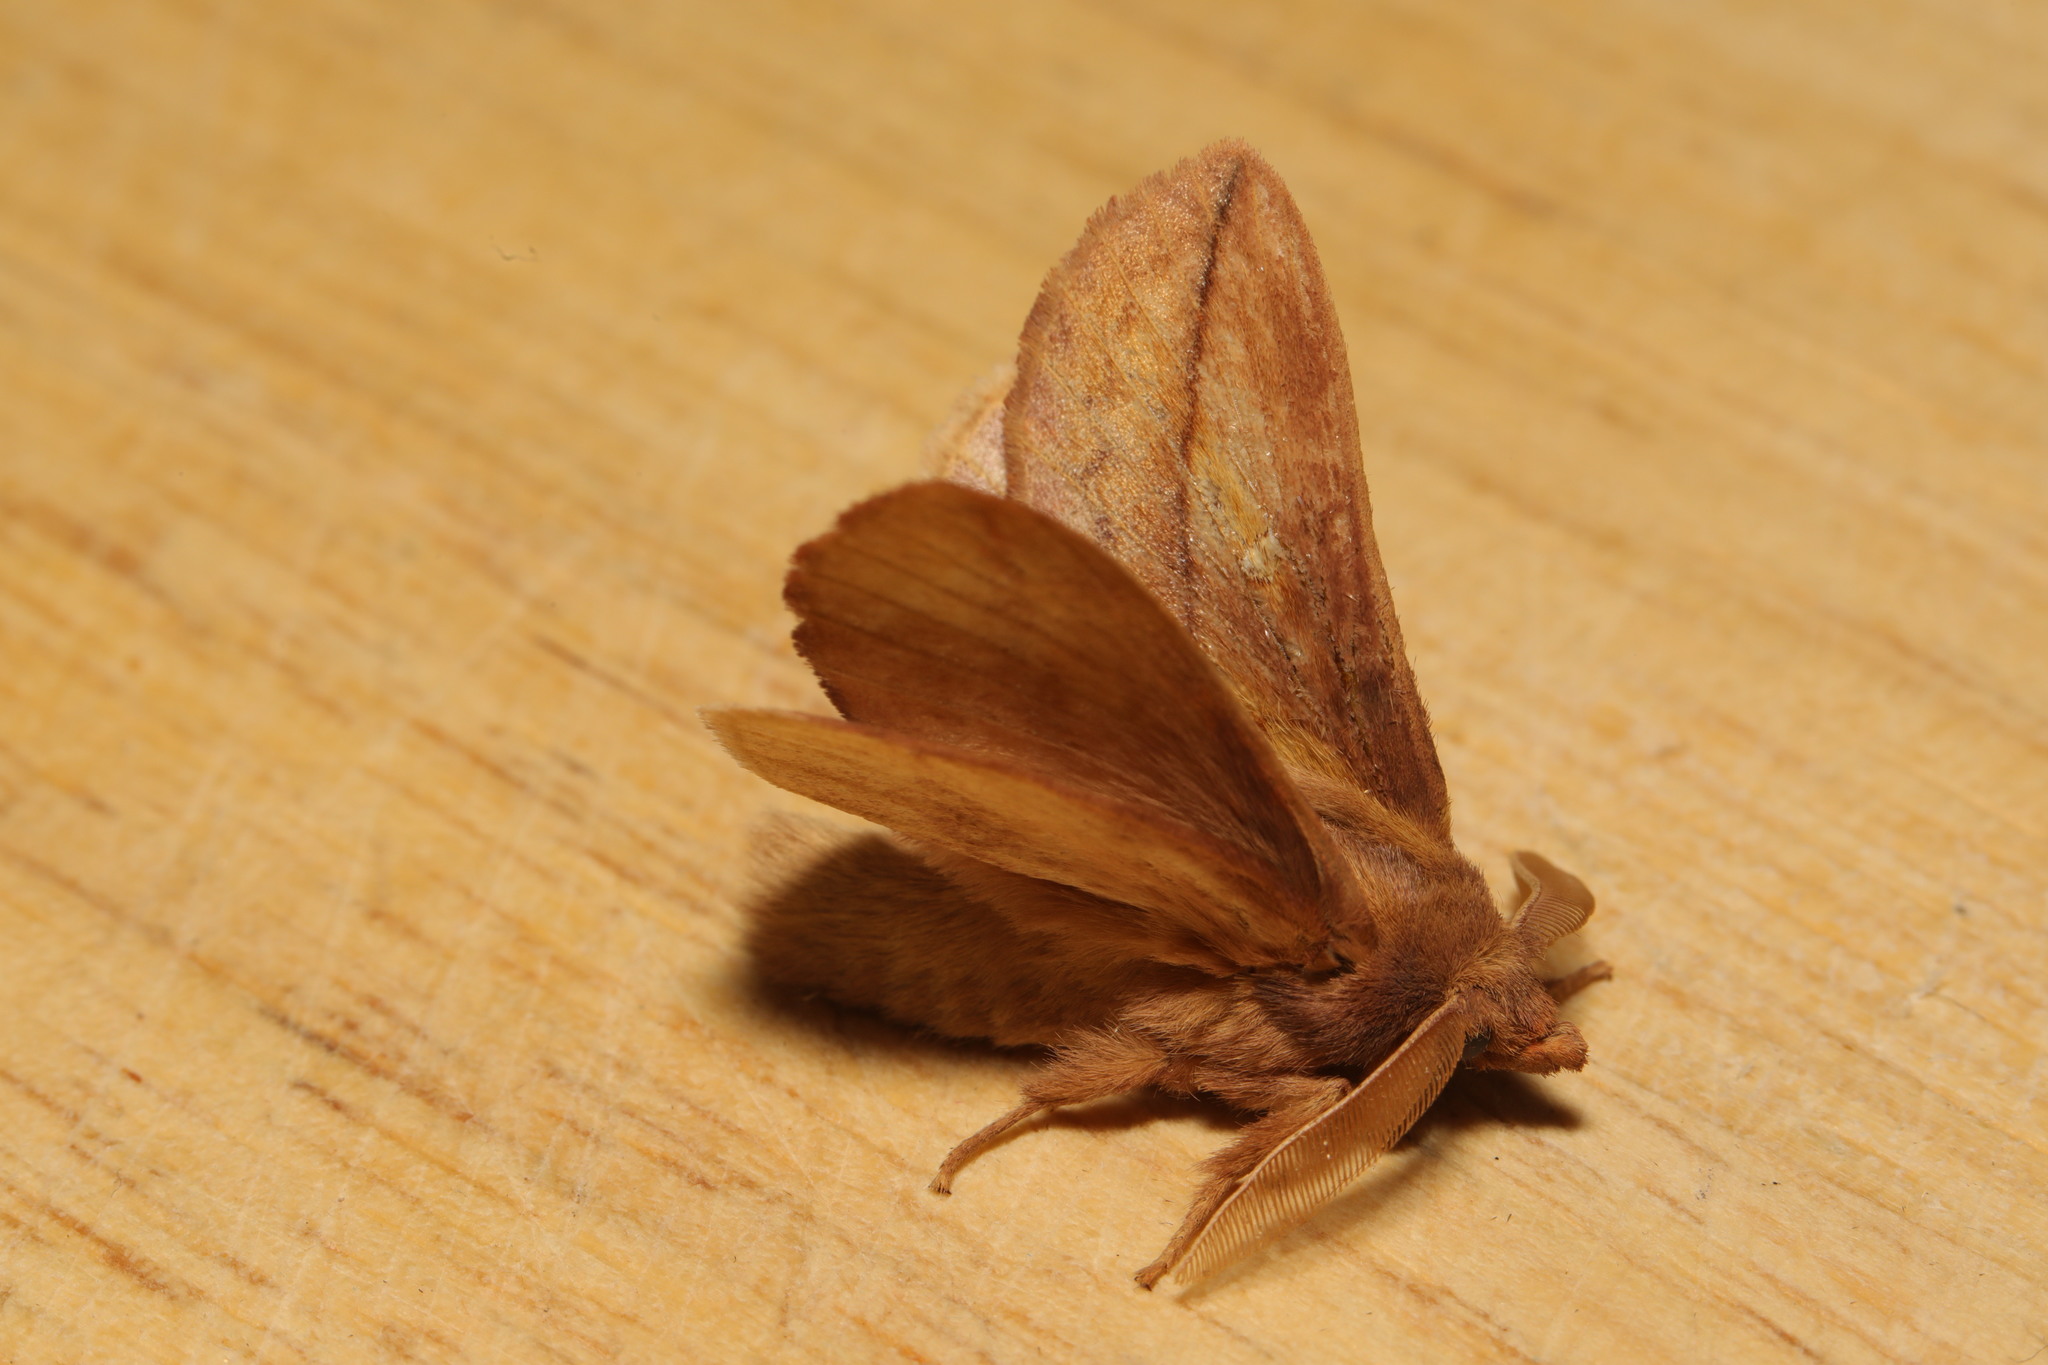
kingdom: Animalia
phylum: Arthropoda
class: Insecta
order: Lepidoptera
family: Lasiocampidae
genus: Euthrix
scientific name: Euthrix potatoria
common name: Drinker
